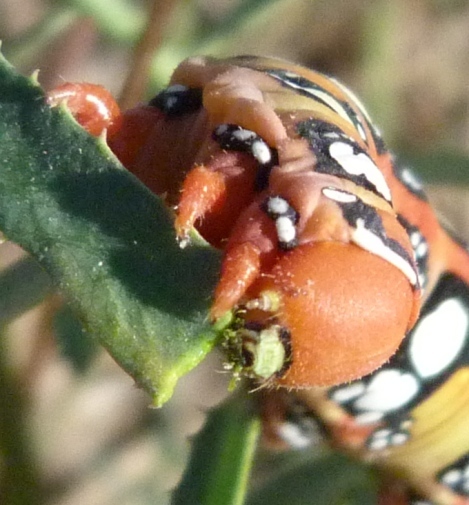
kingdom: Animalia
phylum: Arthropoda
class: Insecta
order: Lepidoptera
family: Sphingidae
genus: Hyles
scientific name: Hyles euphorbiae
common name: Spurge hawk-moth
